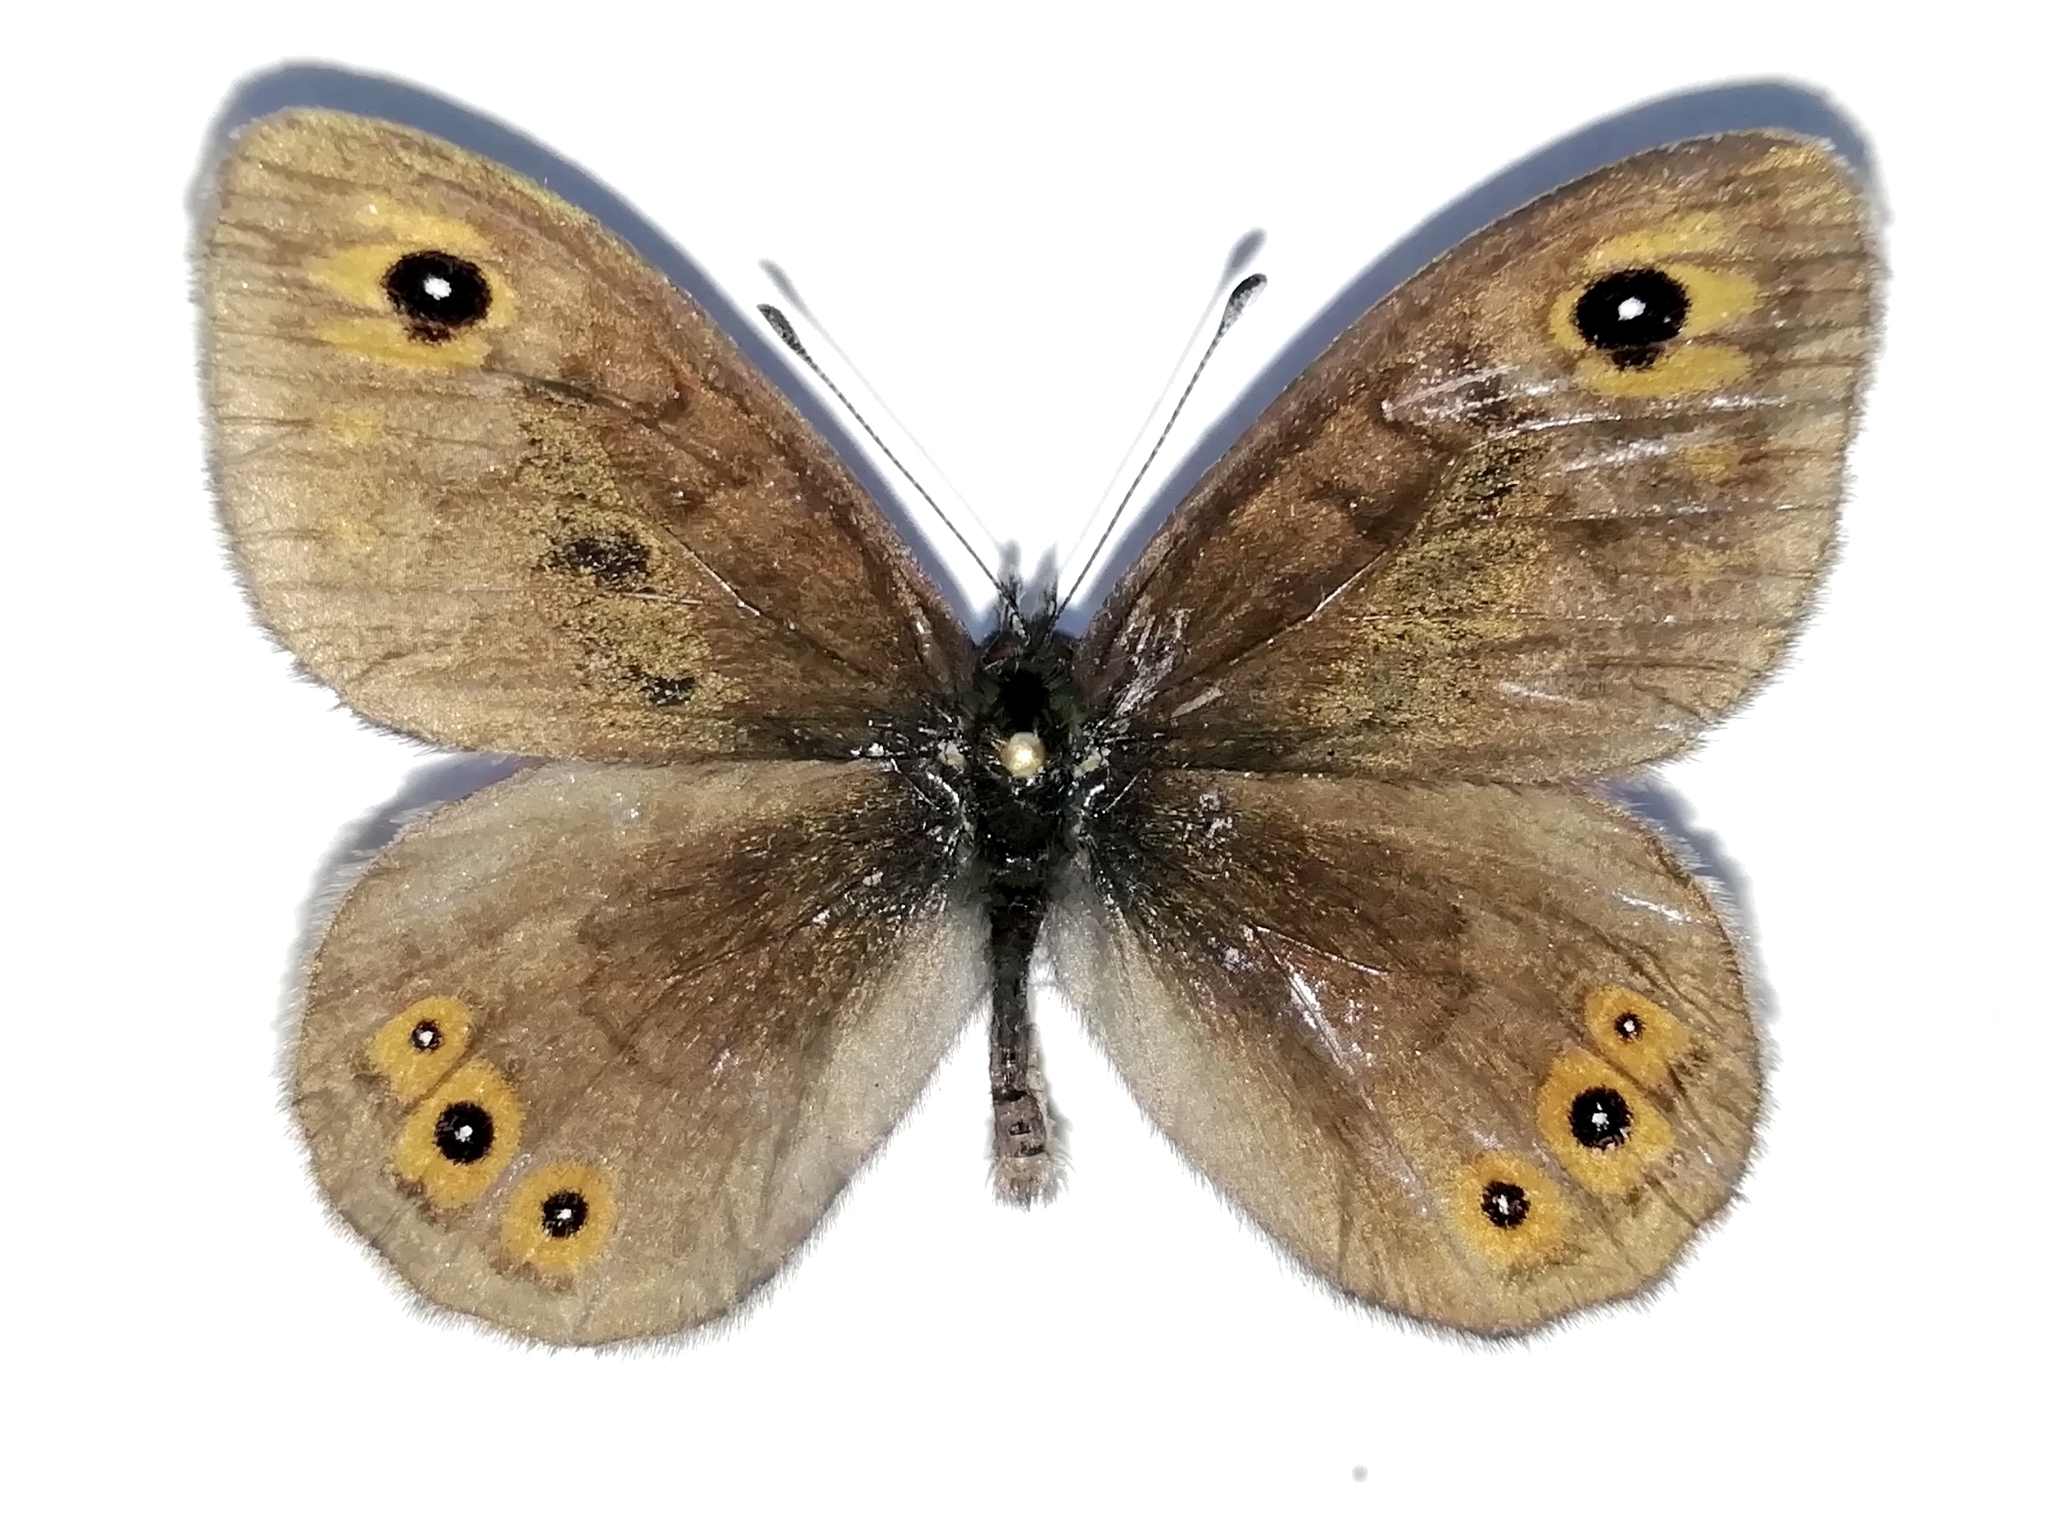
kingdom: Animalia
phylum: Arthropoda
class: Insecta
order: Lepidoptera
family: Nymphalidae
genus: Pararge
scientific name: Pararge petropolitana
